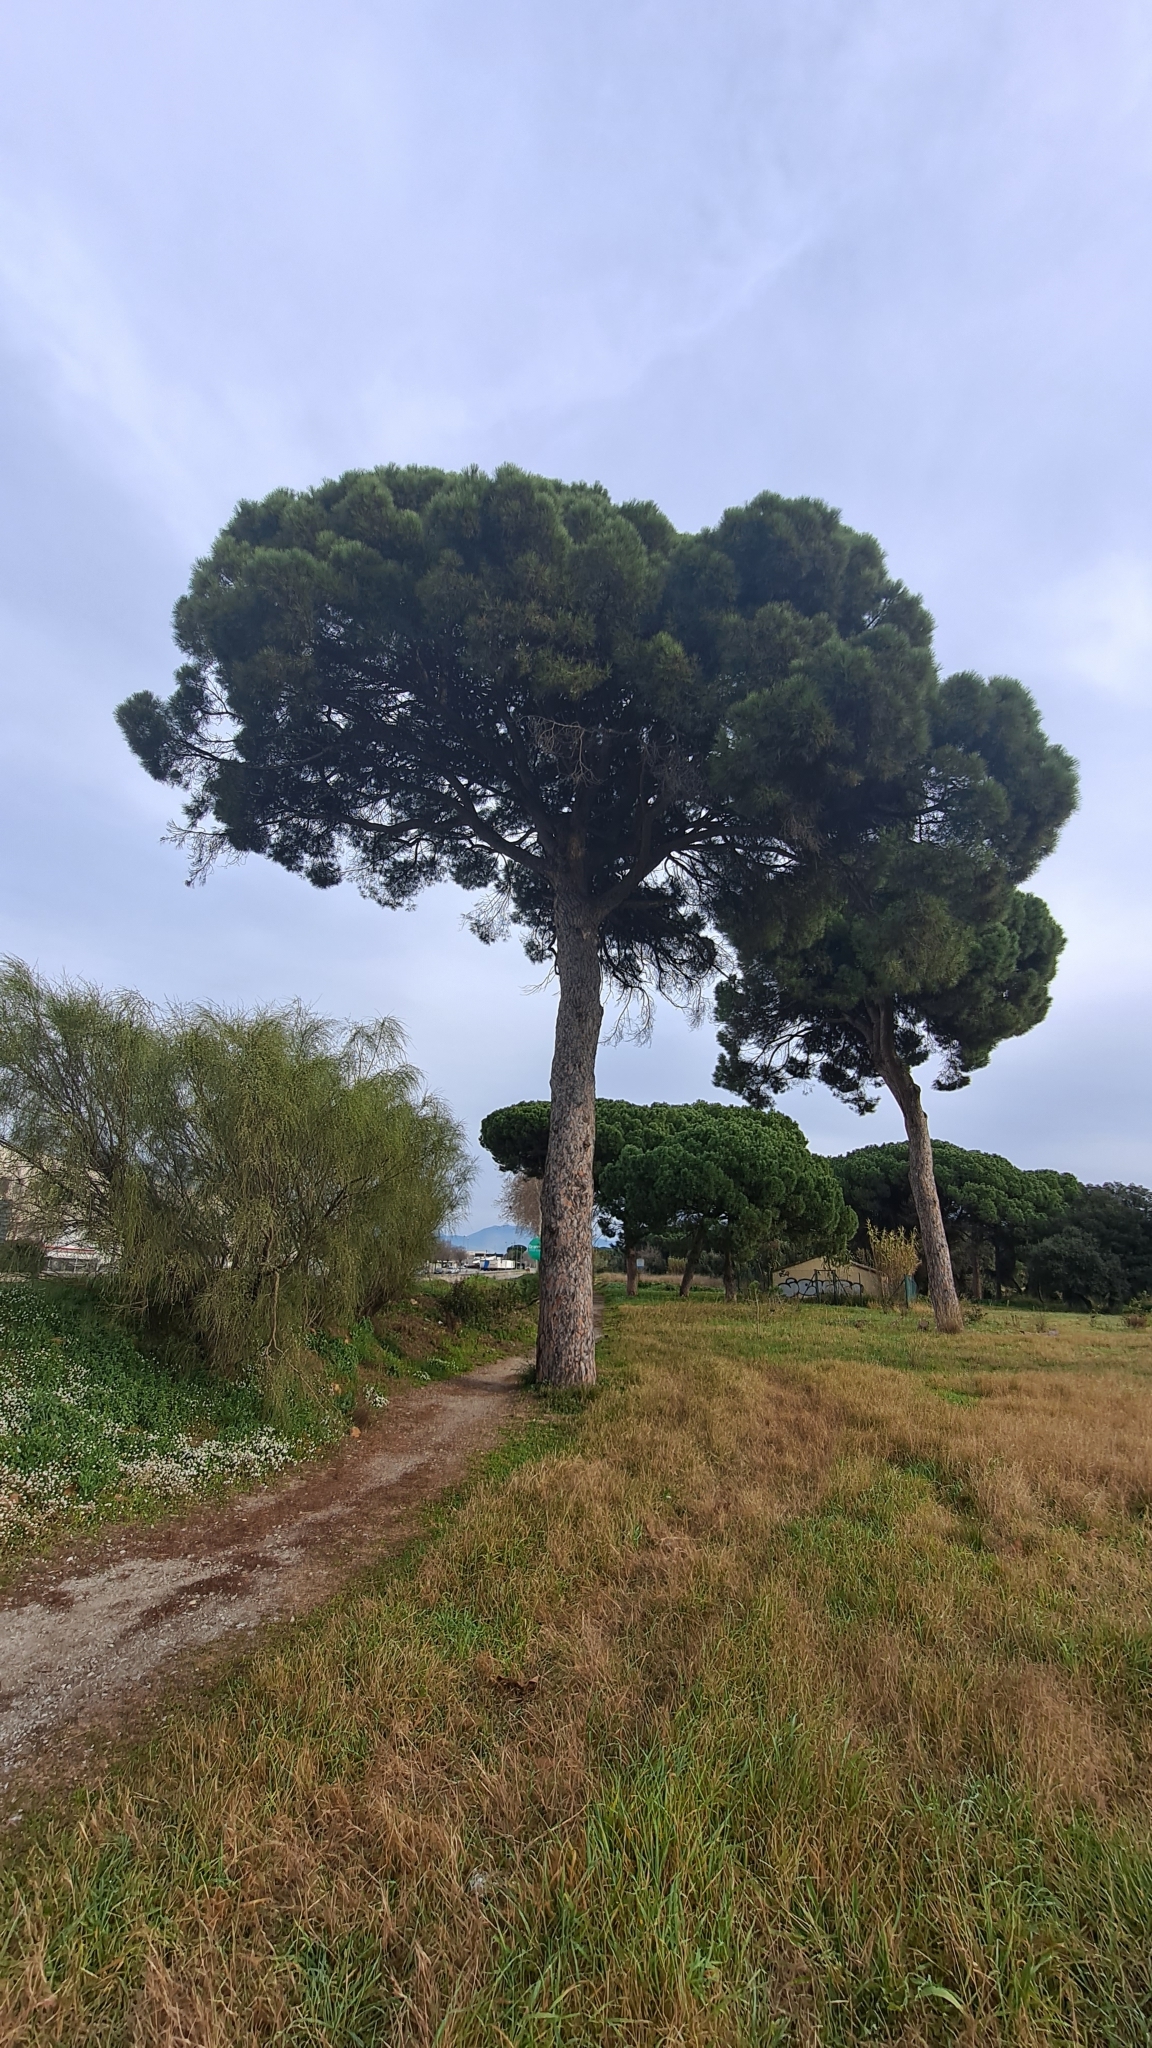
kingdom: Plantae
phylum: Tracheophyta
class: Pinopsida
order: Pinales
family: Pinaceae
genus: Pinus
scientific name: Pinus pinea
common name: Italian stone pine
